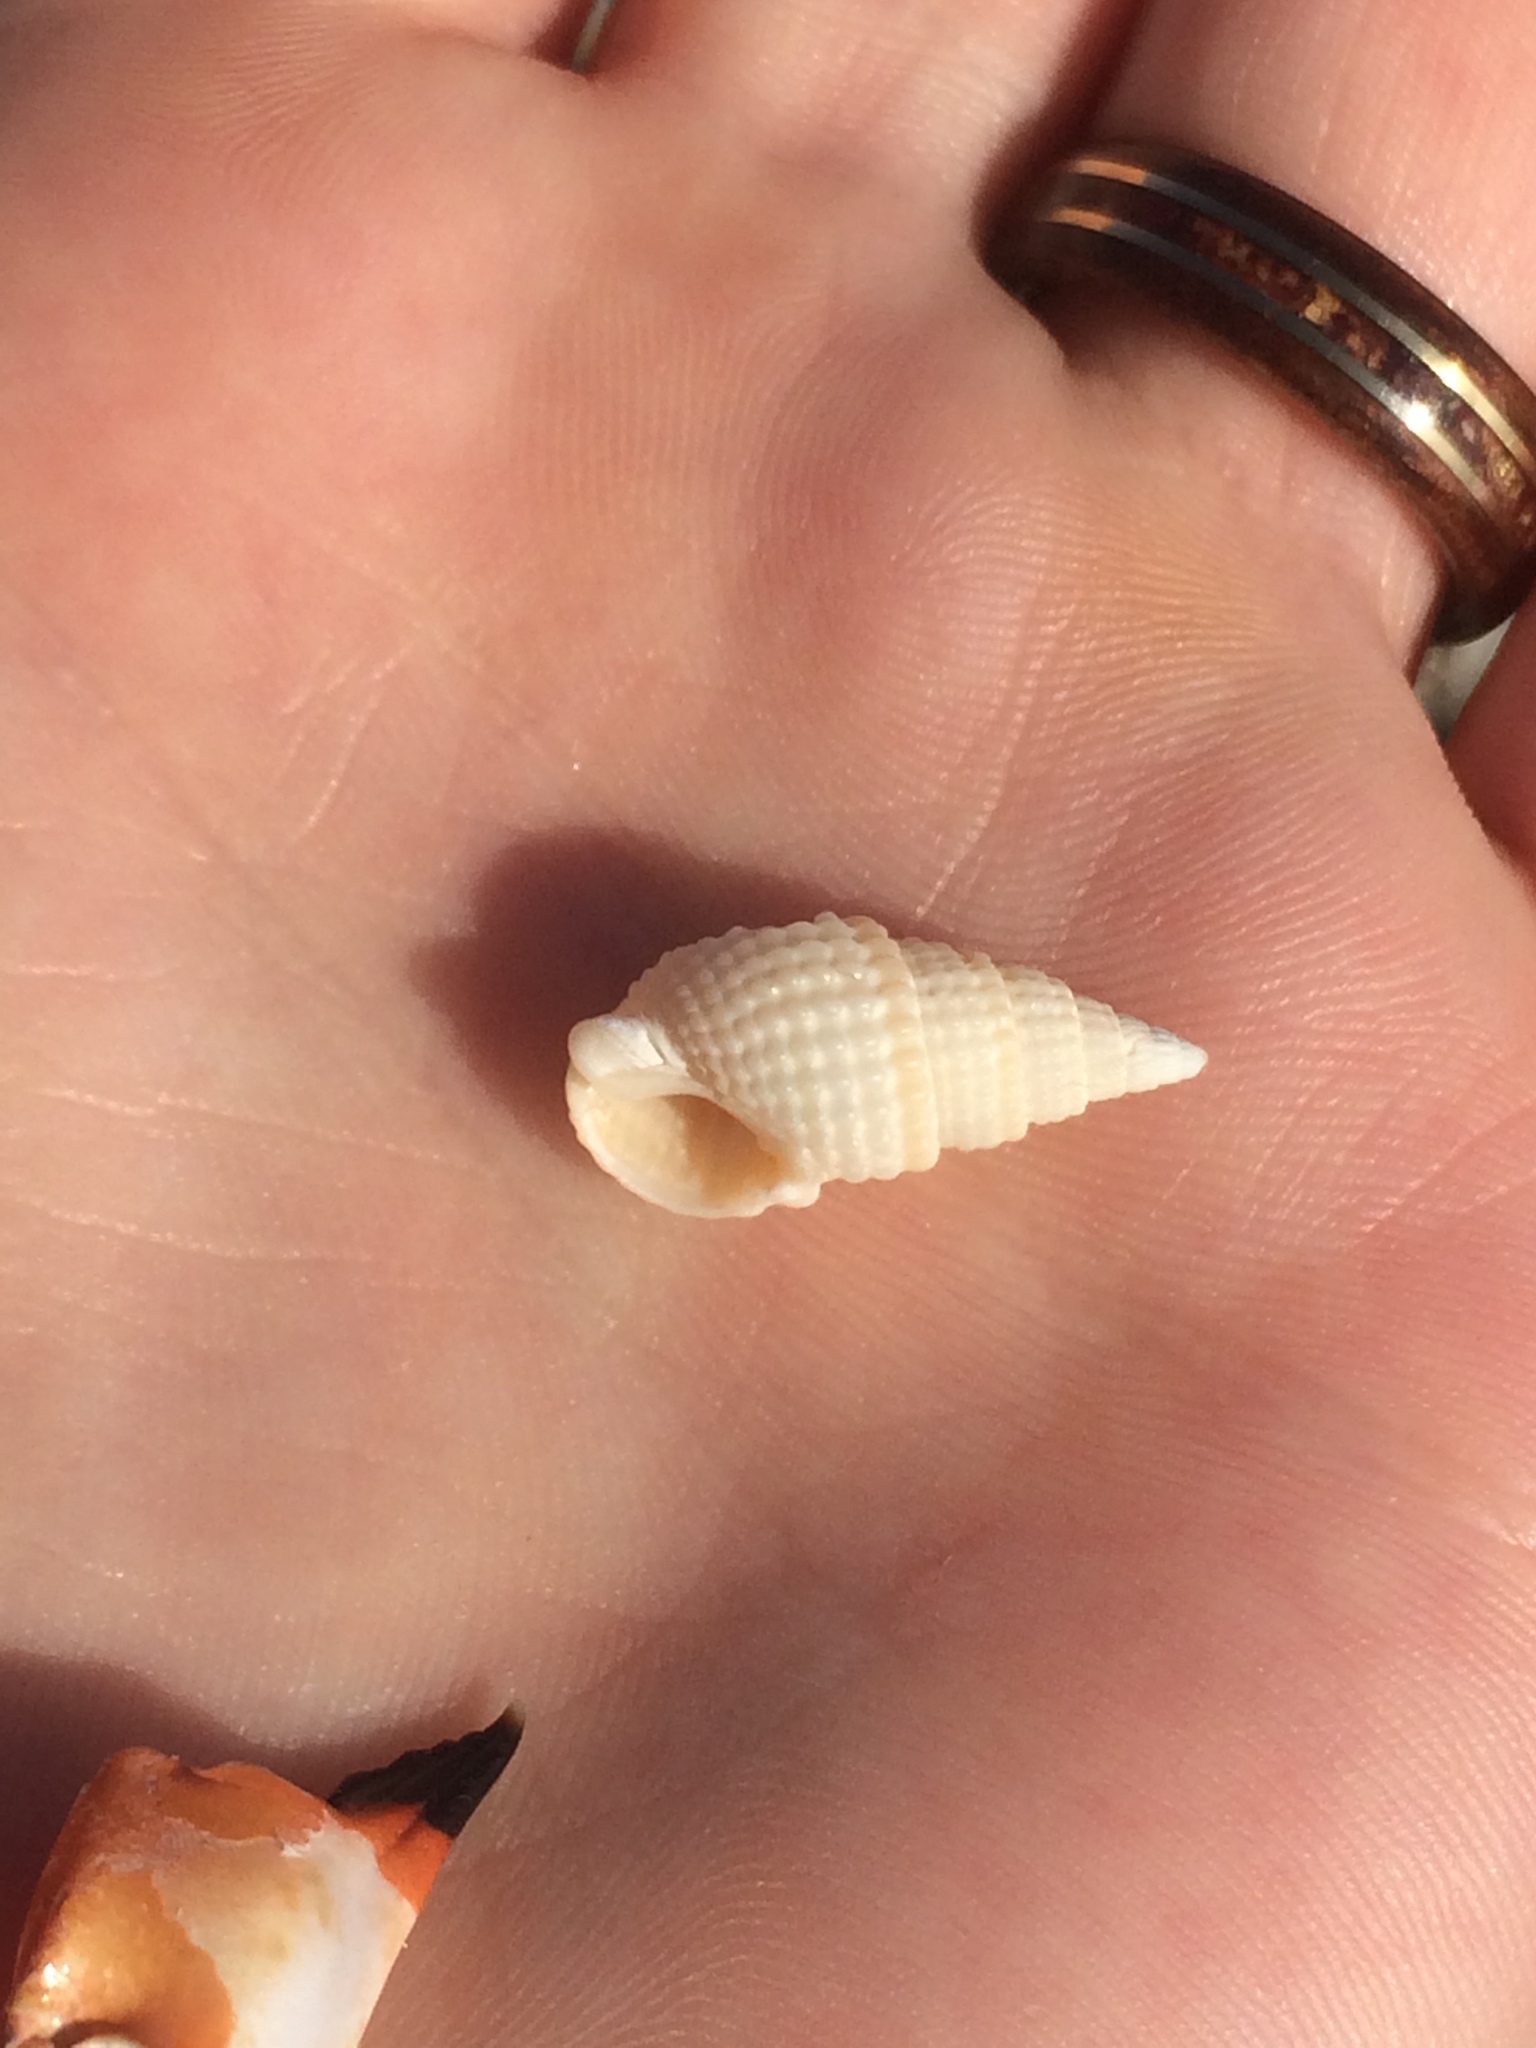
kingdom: Animalia
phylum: Mollusca
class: Gastropoda
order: Neogastropoda
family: Nassariidae
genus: Ilyanassa
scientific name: Ilyanassa trivittata
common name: Three-line mudsnail
